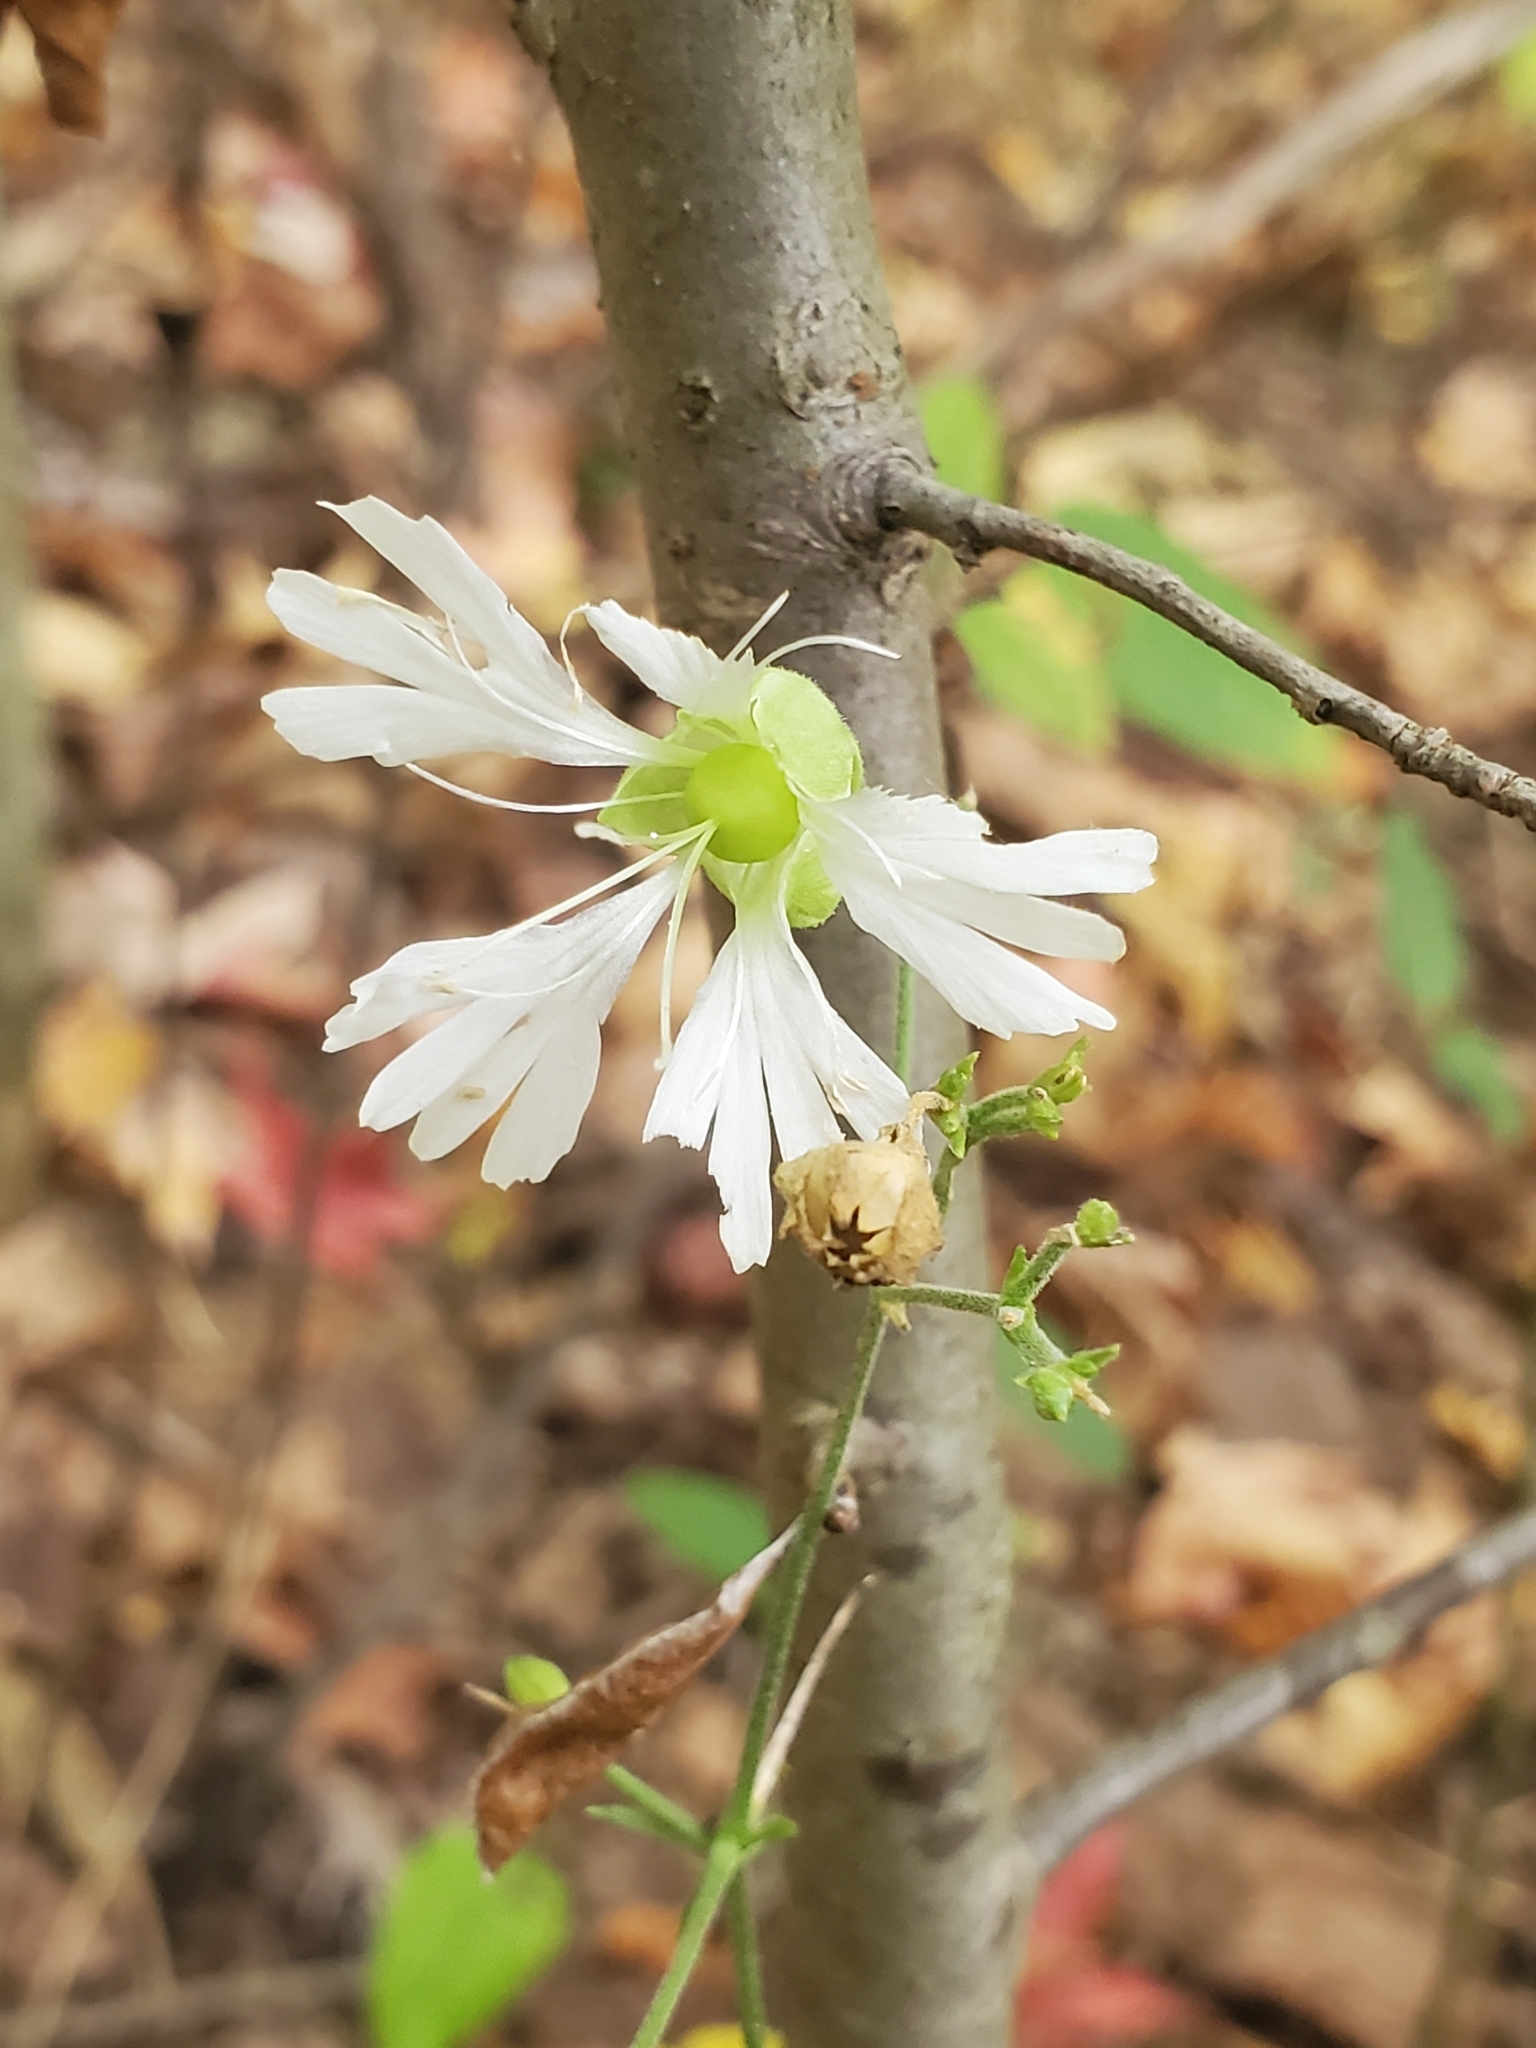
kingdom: Plantae
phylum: Tracheophyta
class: Magnoliopsida
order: Caryophyllales
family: Caryophyllaceae
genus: Silene
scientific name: Silene stellata
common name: Starry campion
